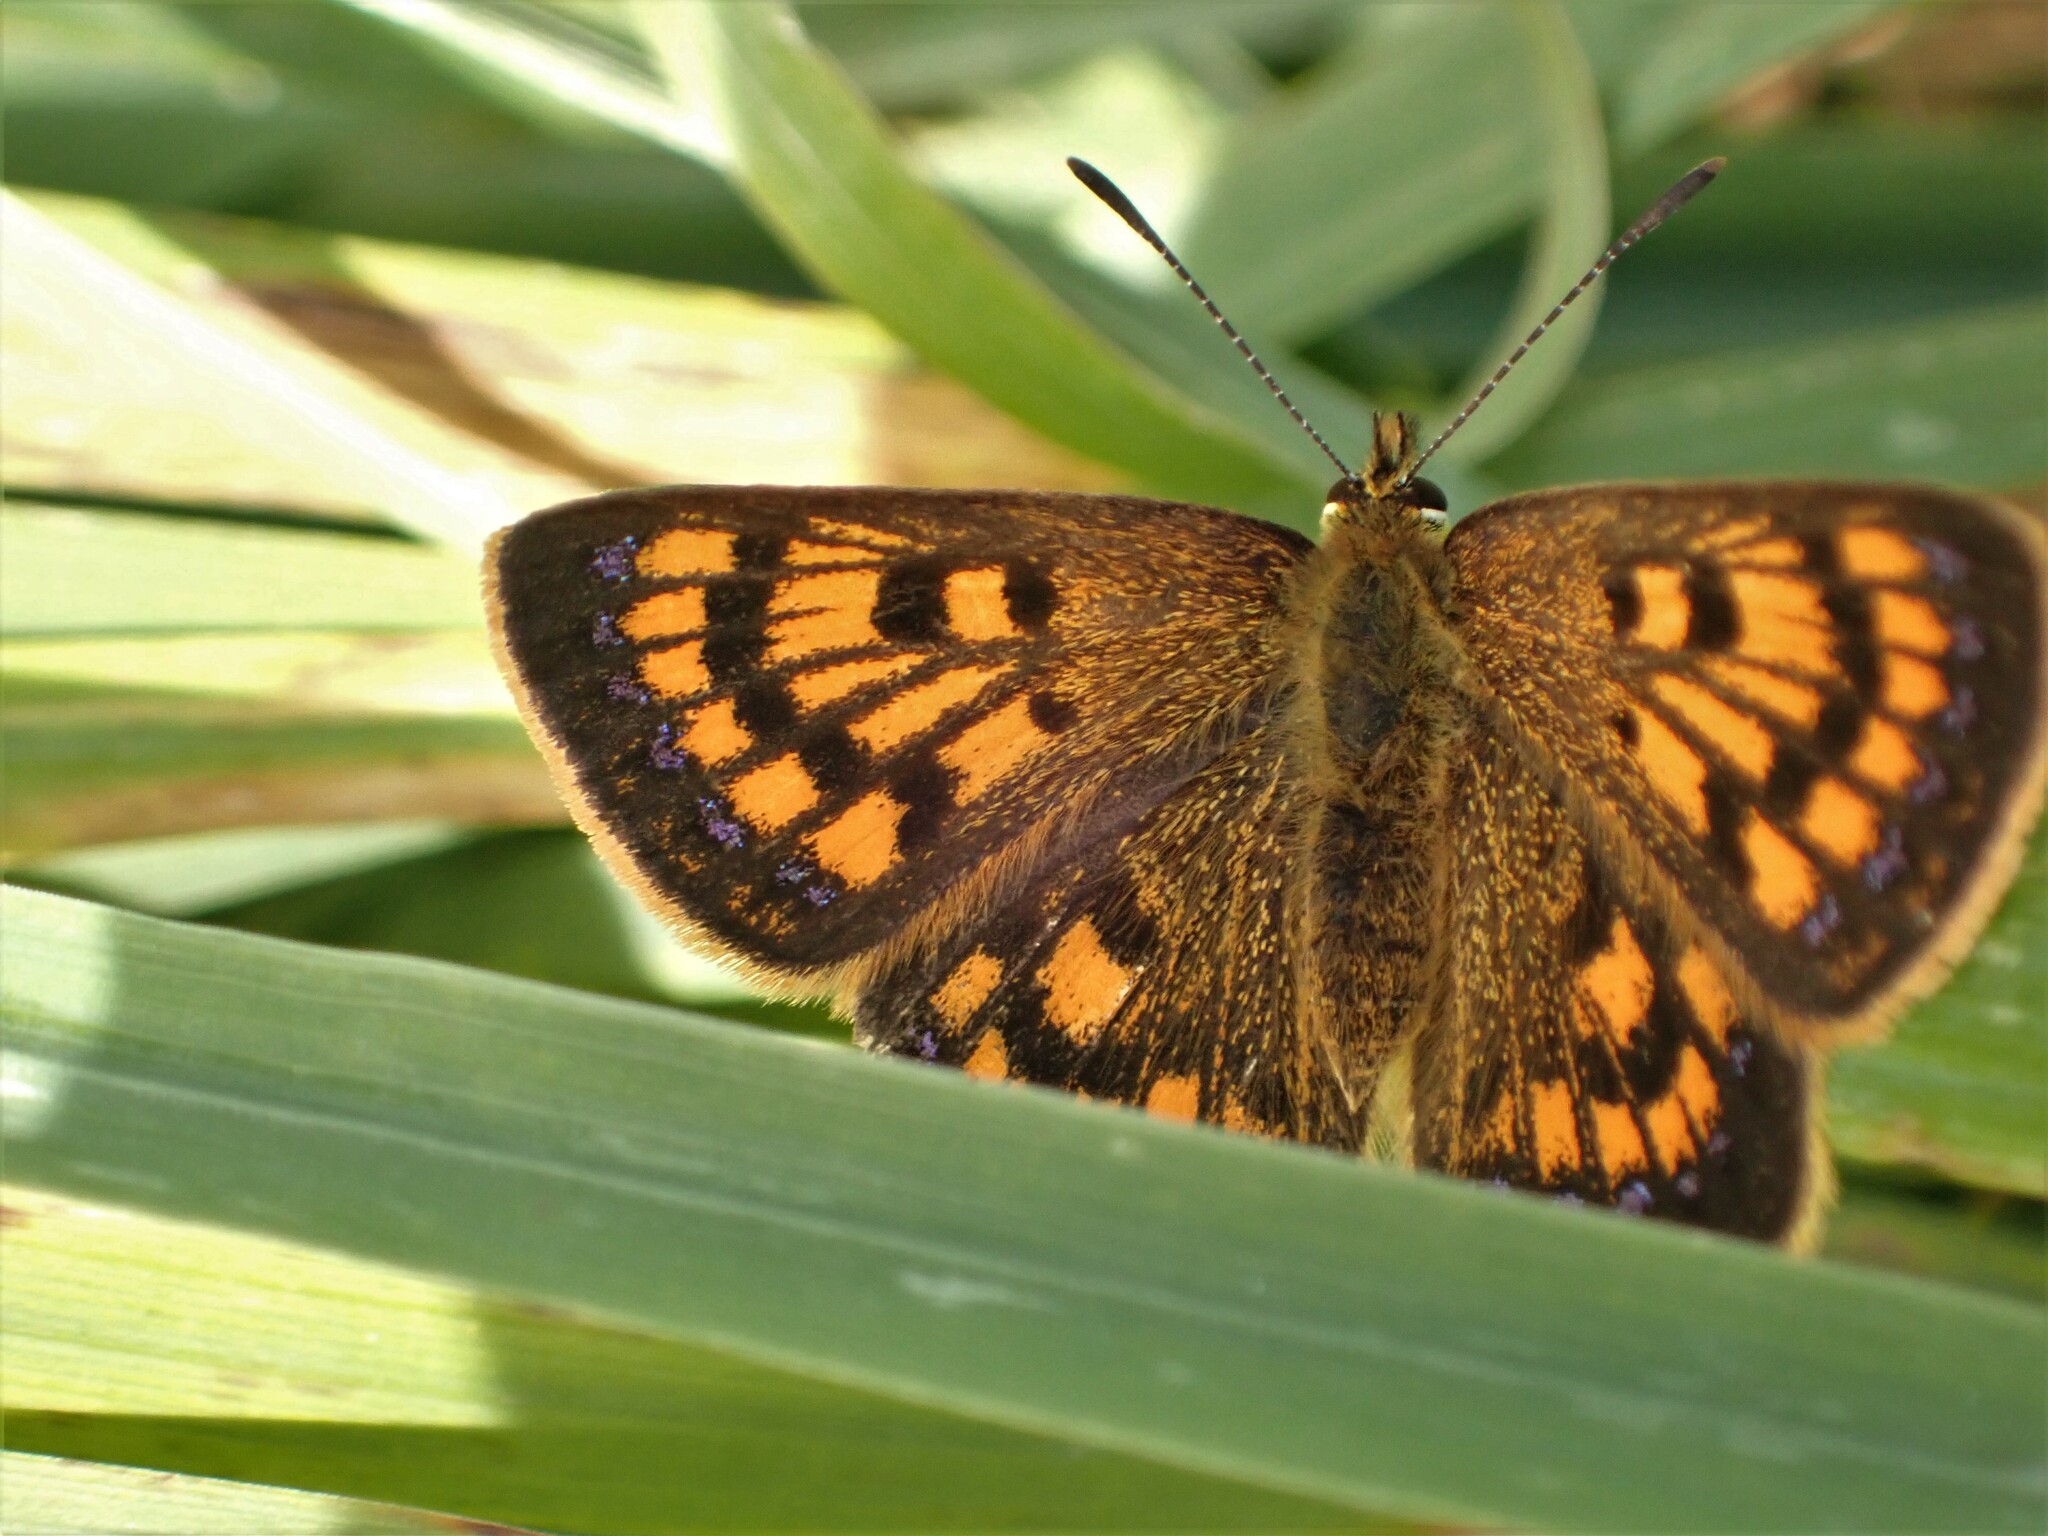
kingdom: Animalia
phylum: Arthropoda
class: Insecta
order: Lepidoptera
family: Lycaenidae
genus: Lycaena
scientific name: Lycaena
